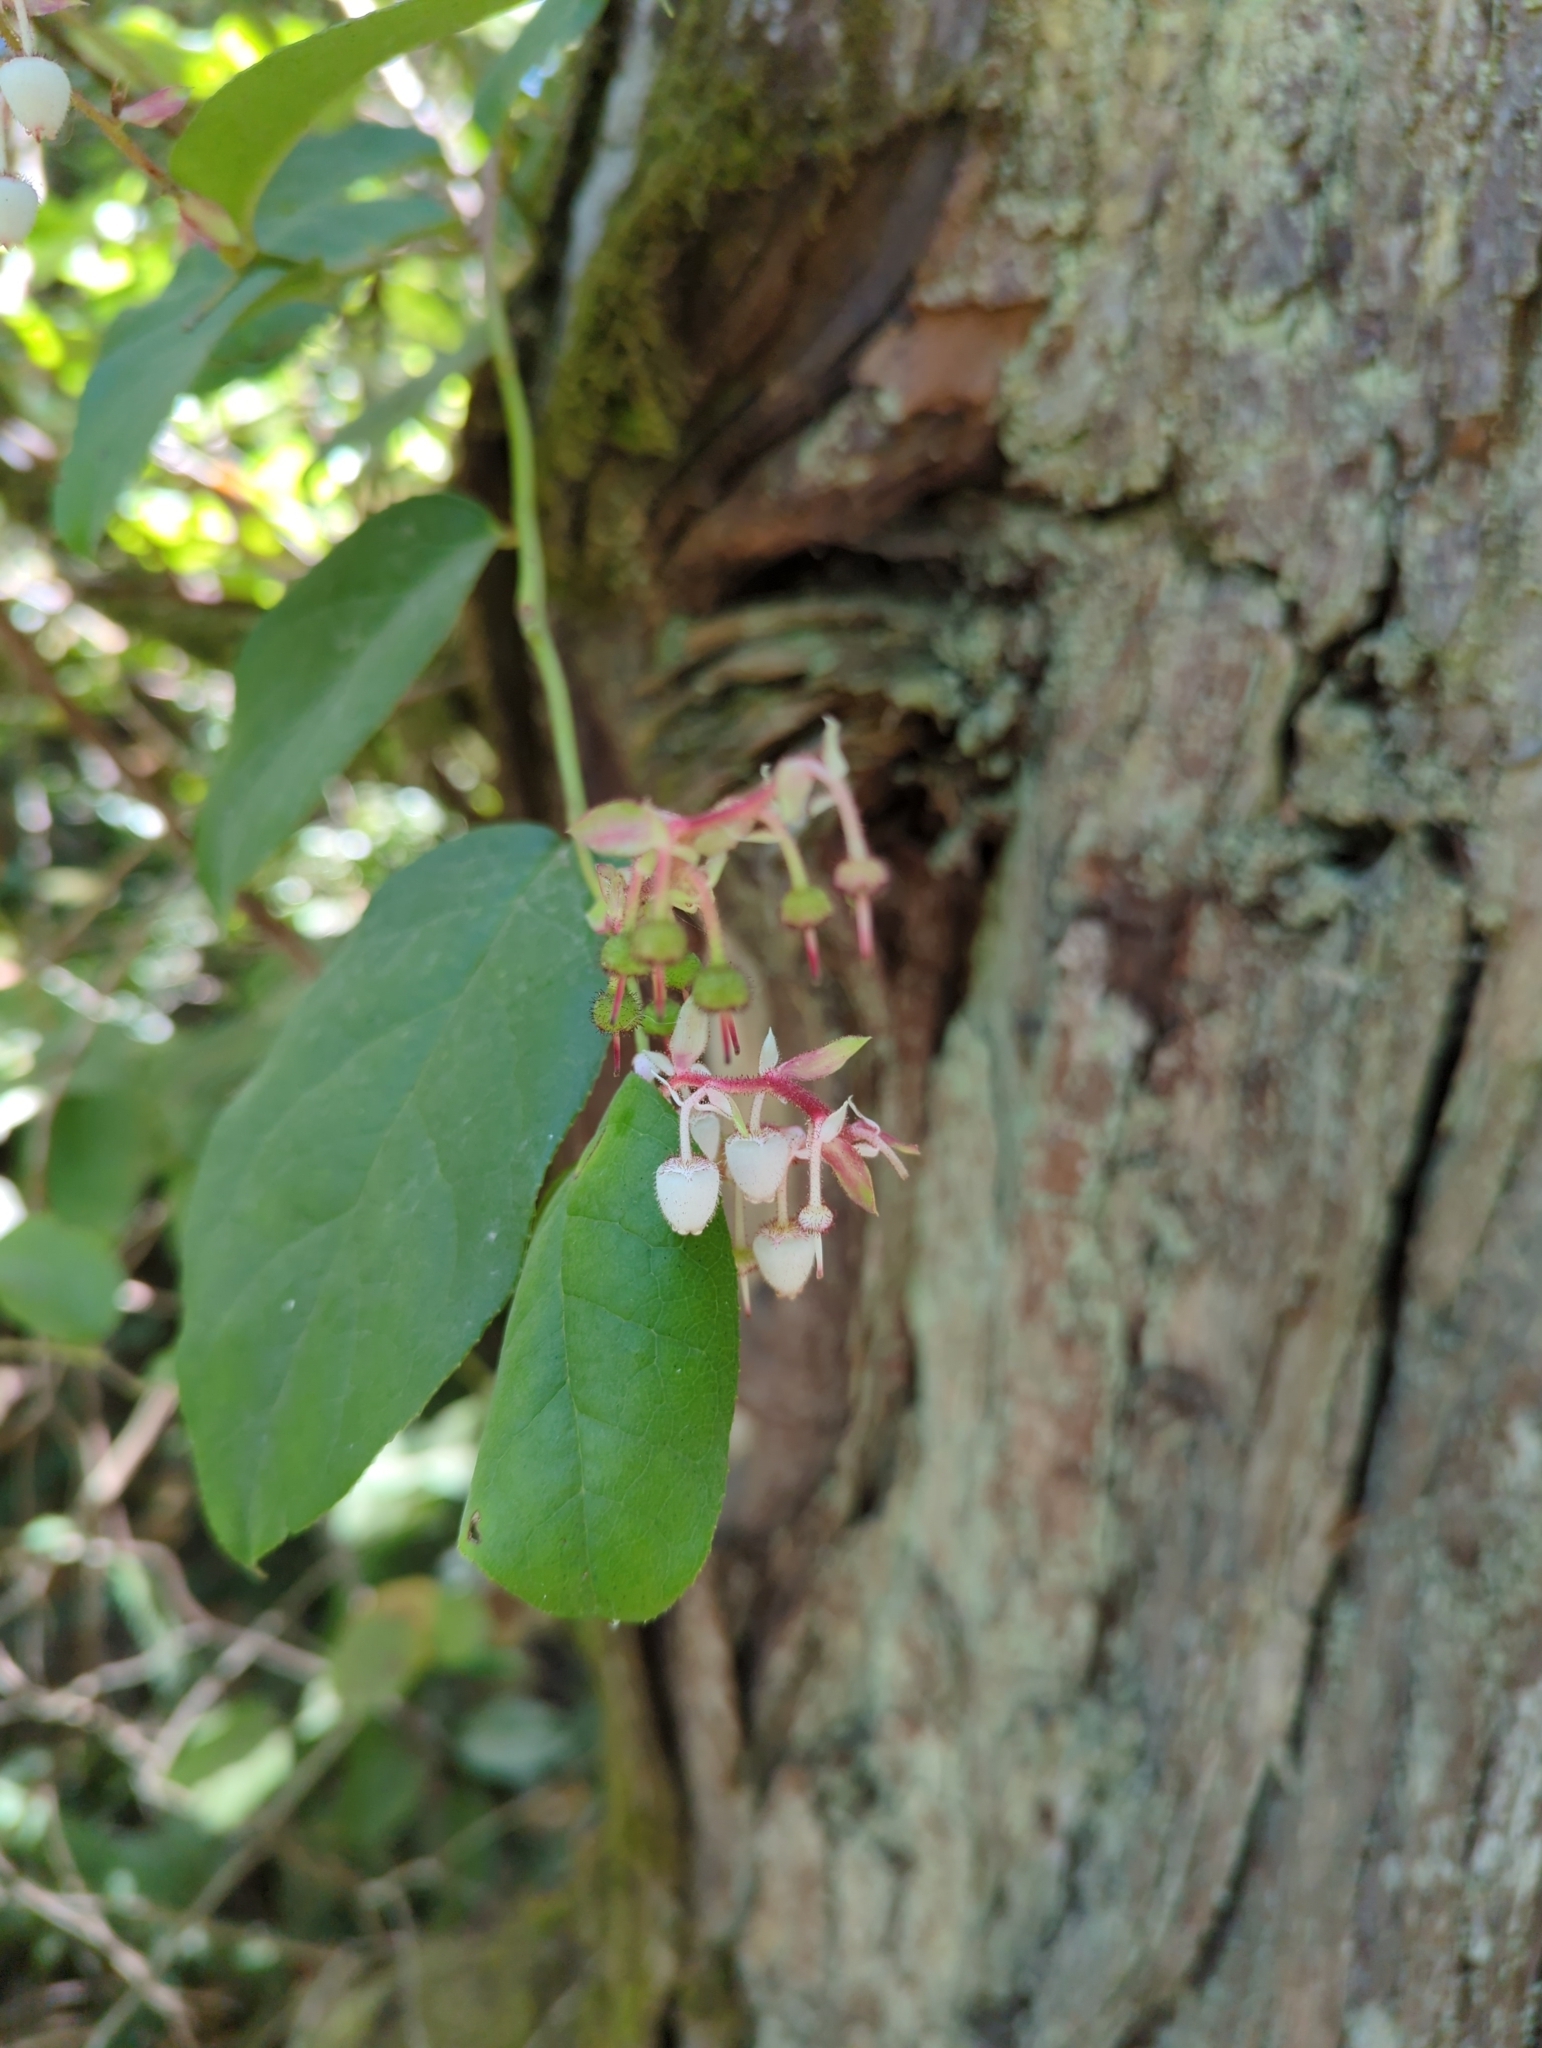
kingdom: Plantae
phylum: Tracheophyta
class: Magnoliopsida
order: Ericales
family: Ericaceae
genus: Gaultheria
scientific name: Gaultheria shallon
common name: Shallon
